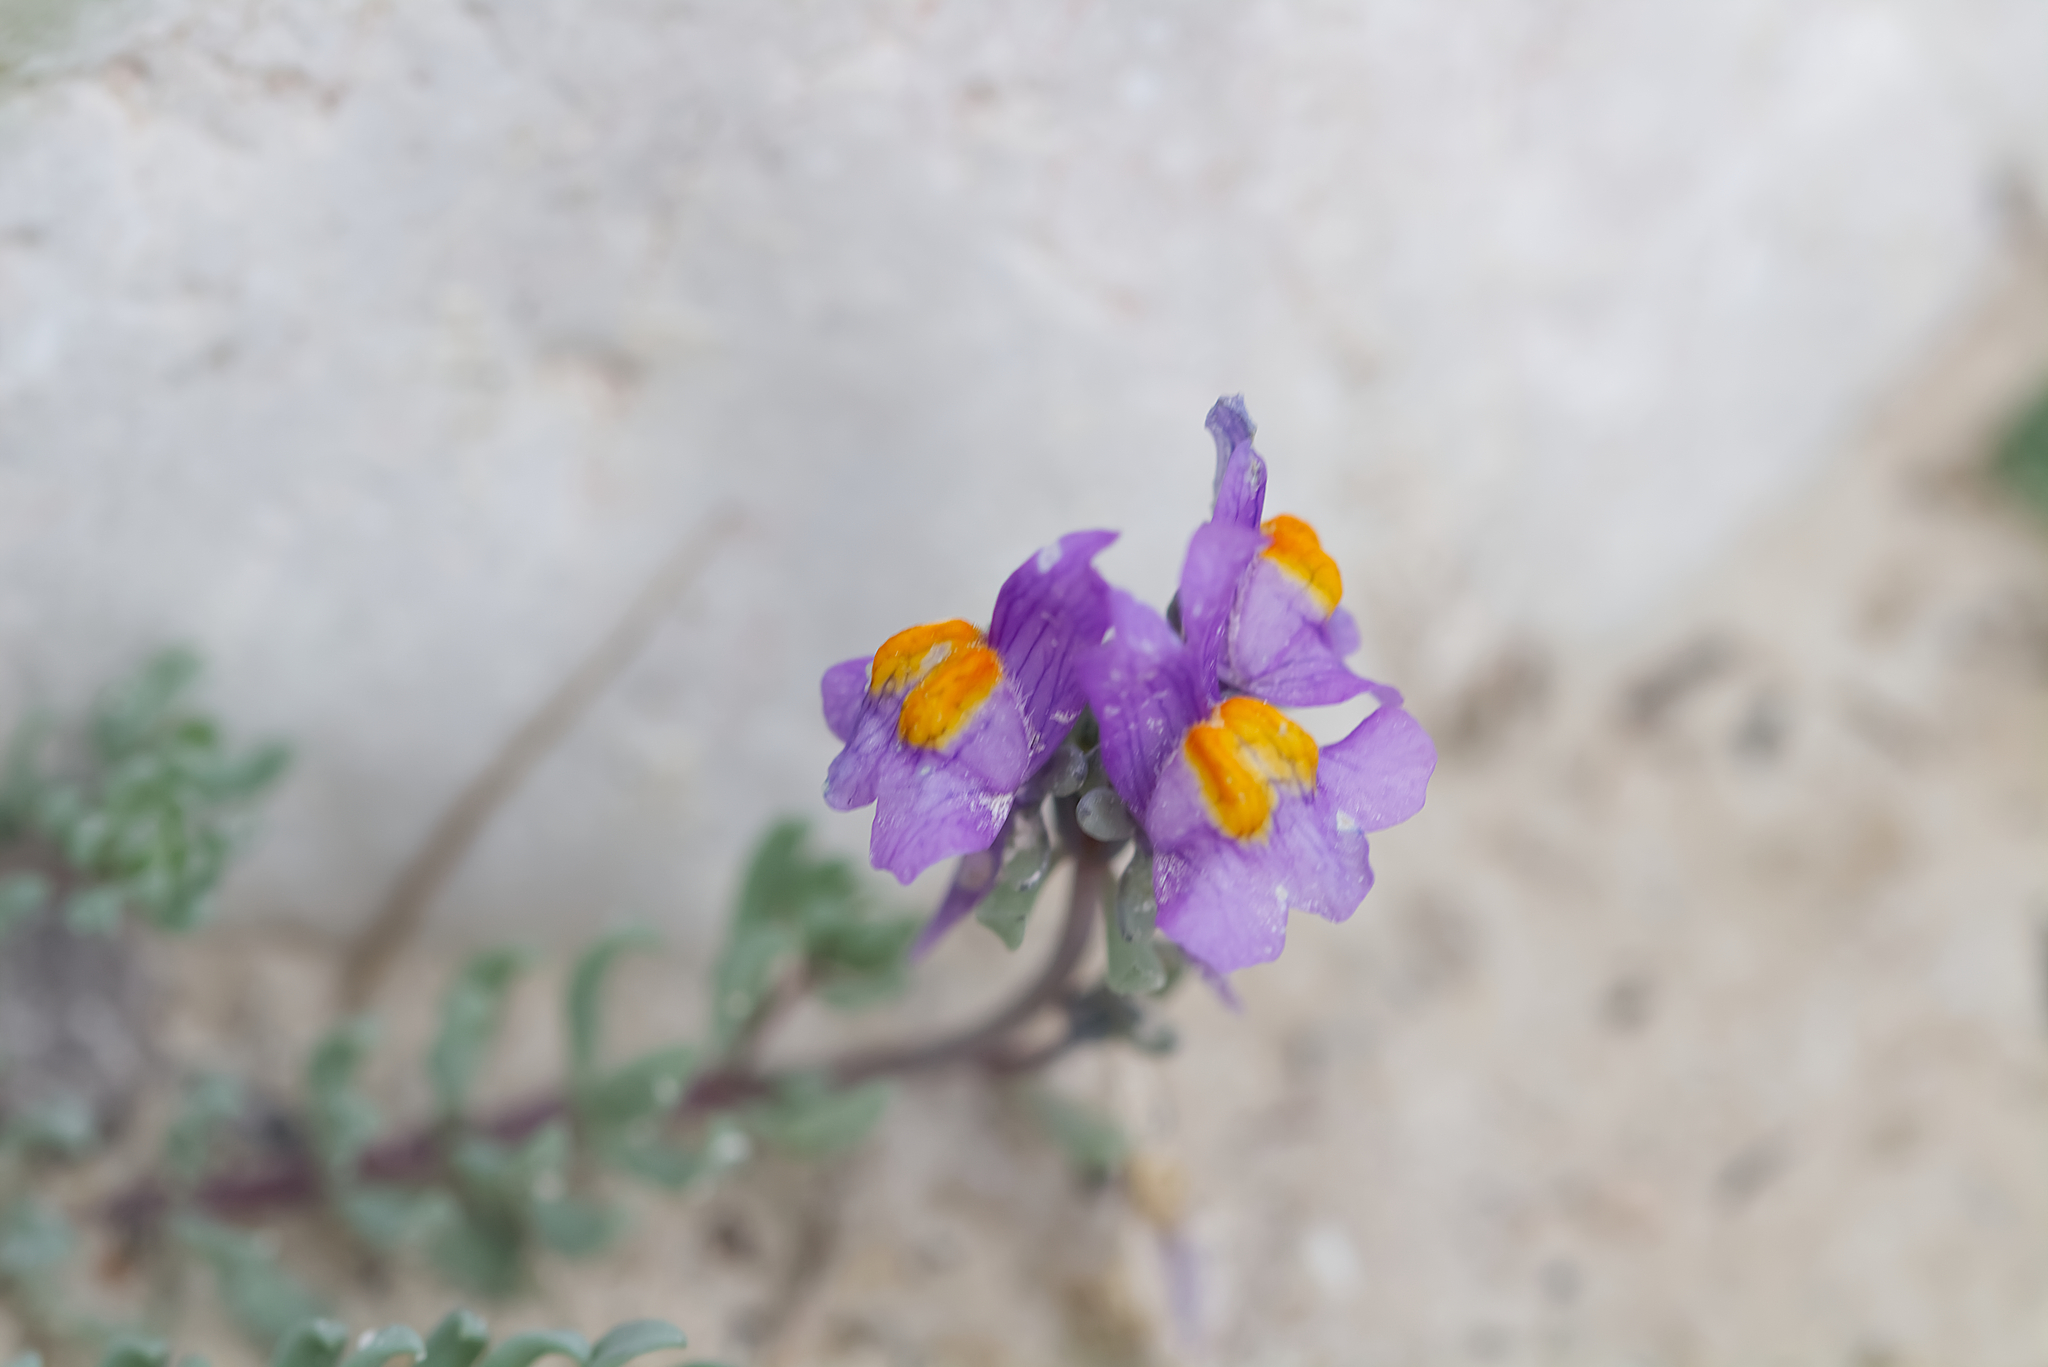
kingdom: Plantae
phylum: Tracheophyta
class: Magnoliopsida
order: Lamiales
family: Plantaginaceae
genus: Linaria
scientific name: Linaria alpina
